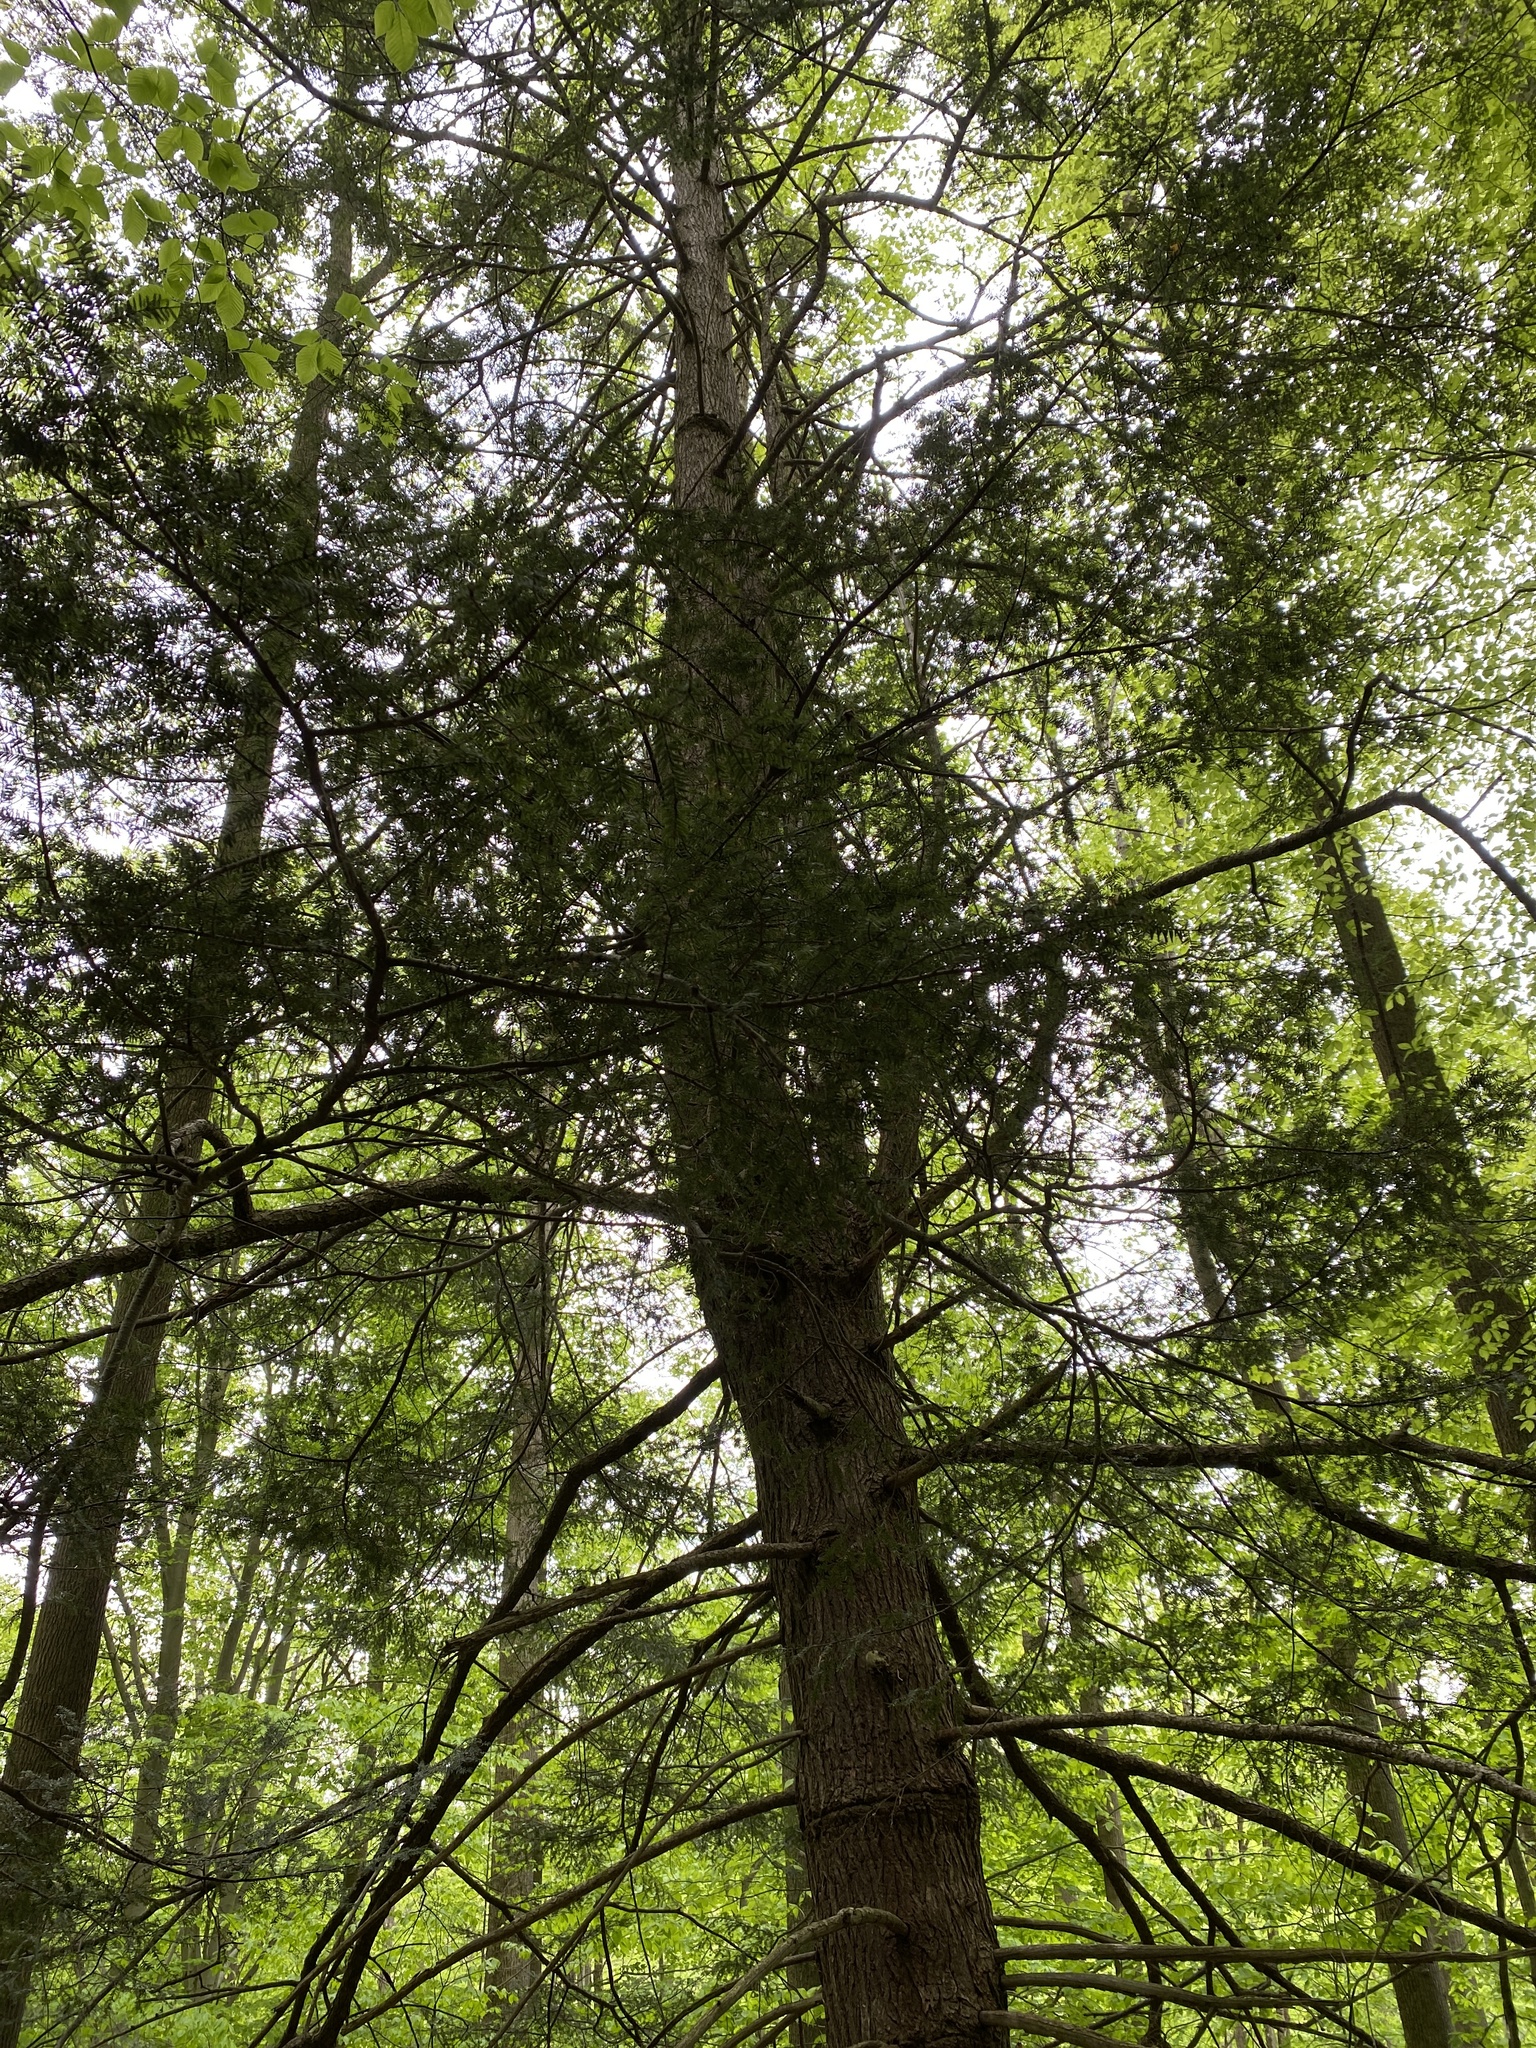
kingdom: Plantae
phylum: Tracheophyta
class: Pinopsida
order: Pinales
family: Pinaceae
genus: Tsuga
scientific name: Tsuga canadensis
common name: Eastern hemlock
